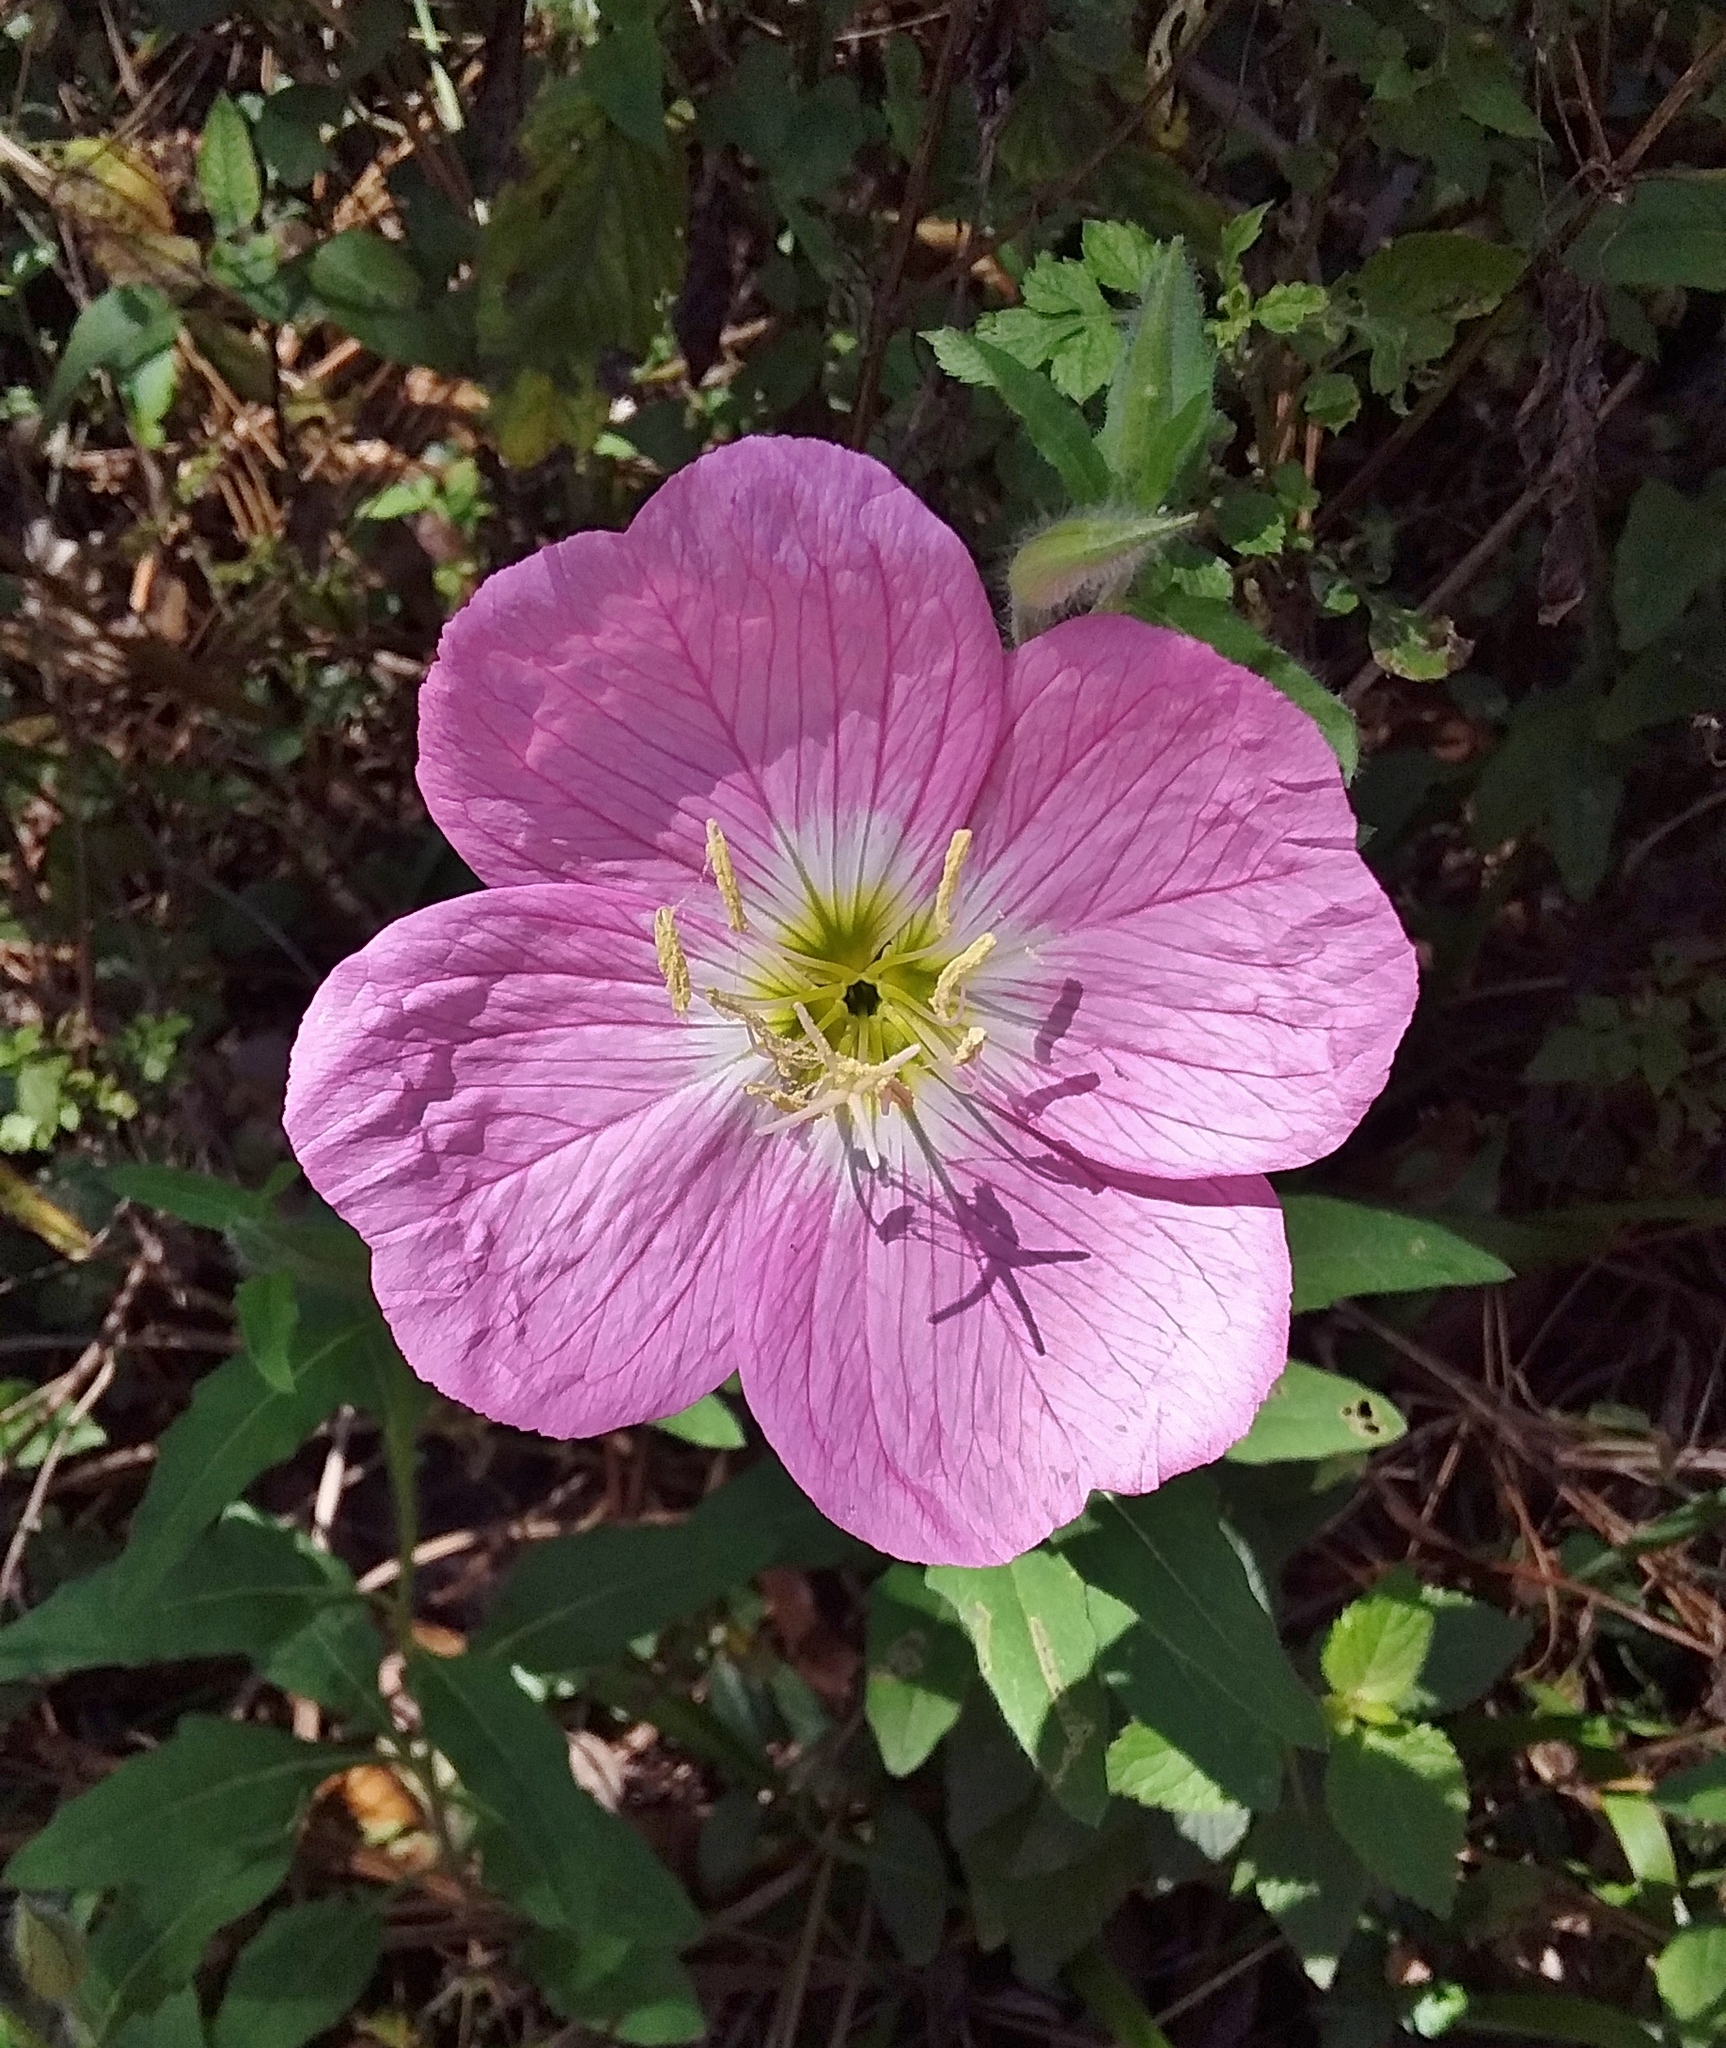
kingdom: Plantae
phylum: Tracheophyta
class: Magnoliopsida
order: Myrtales
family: Onagraceae
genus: Oenothera
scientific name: Oenothera speciosa
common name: White evening-primrose
